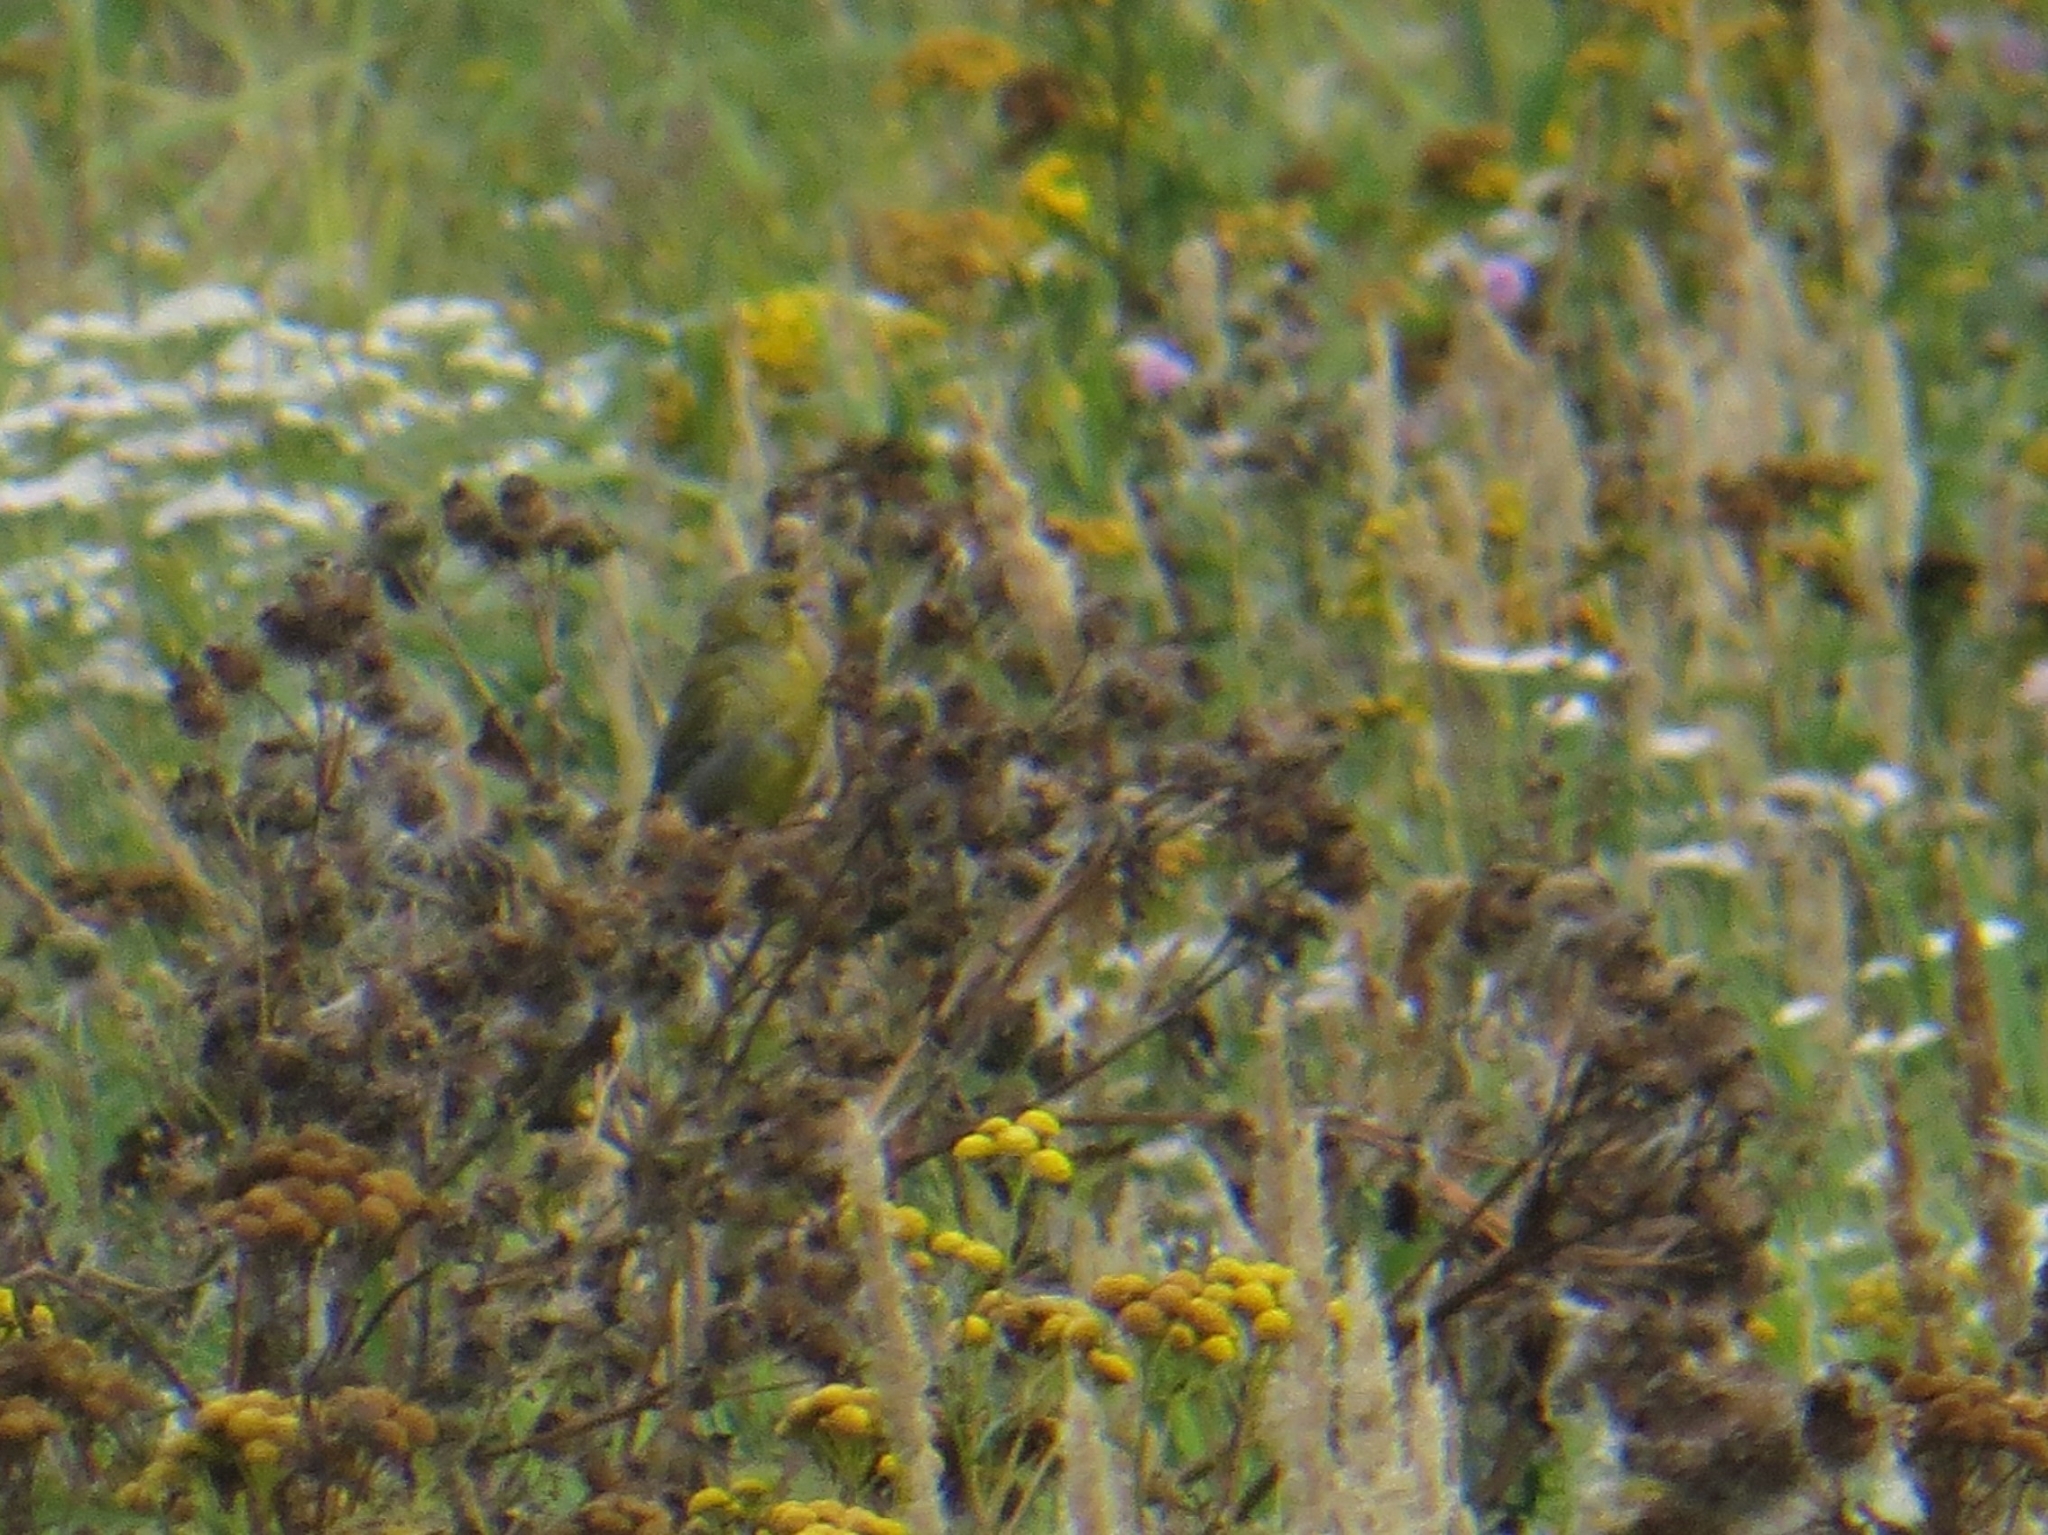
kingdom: Plantae
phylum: Tracheophyta
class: Liliopsida
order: Poales
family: Poaceae
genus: Chloris
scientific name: Chloris chloris
